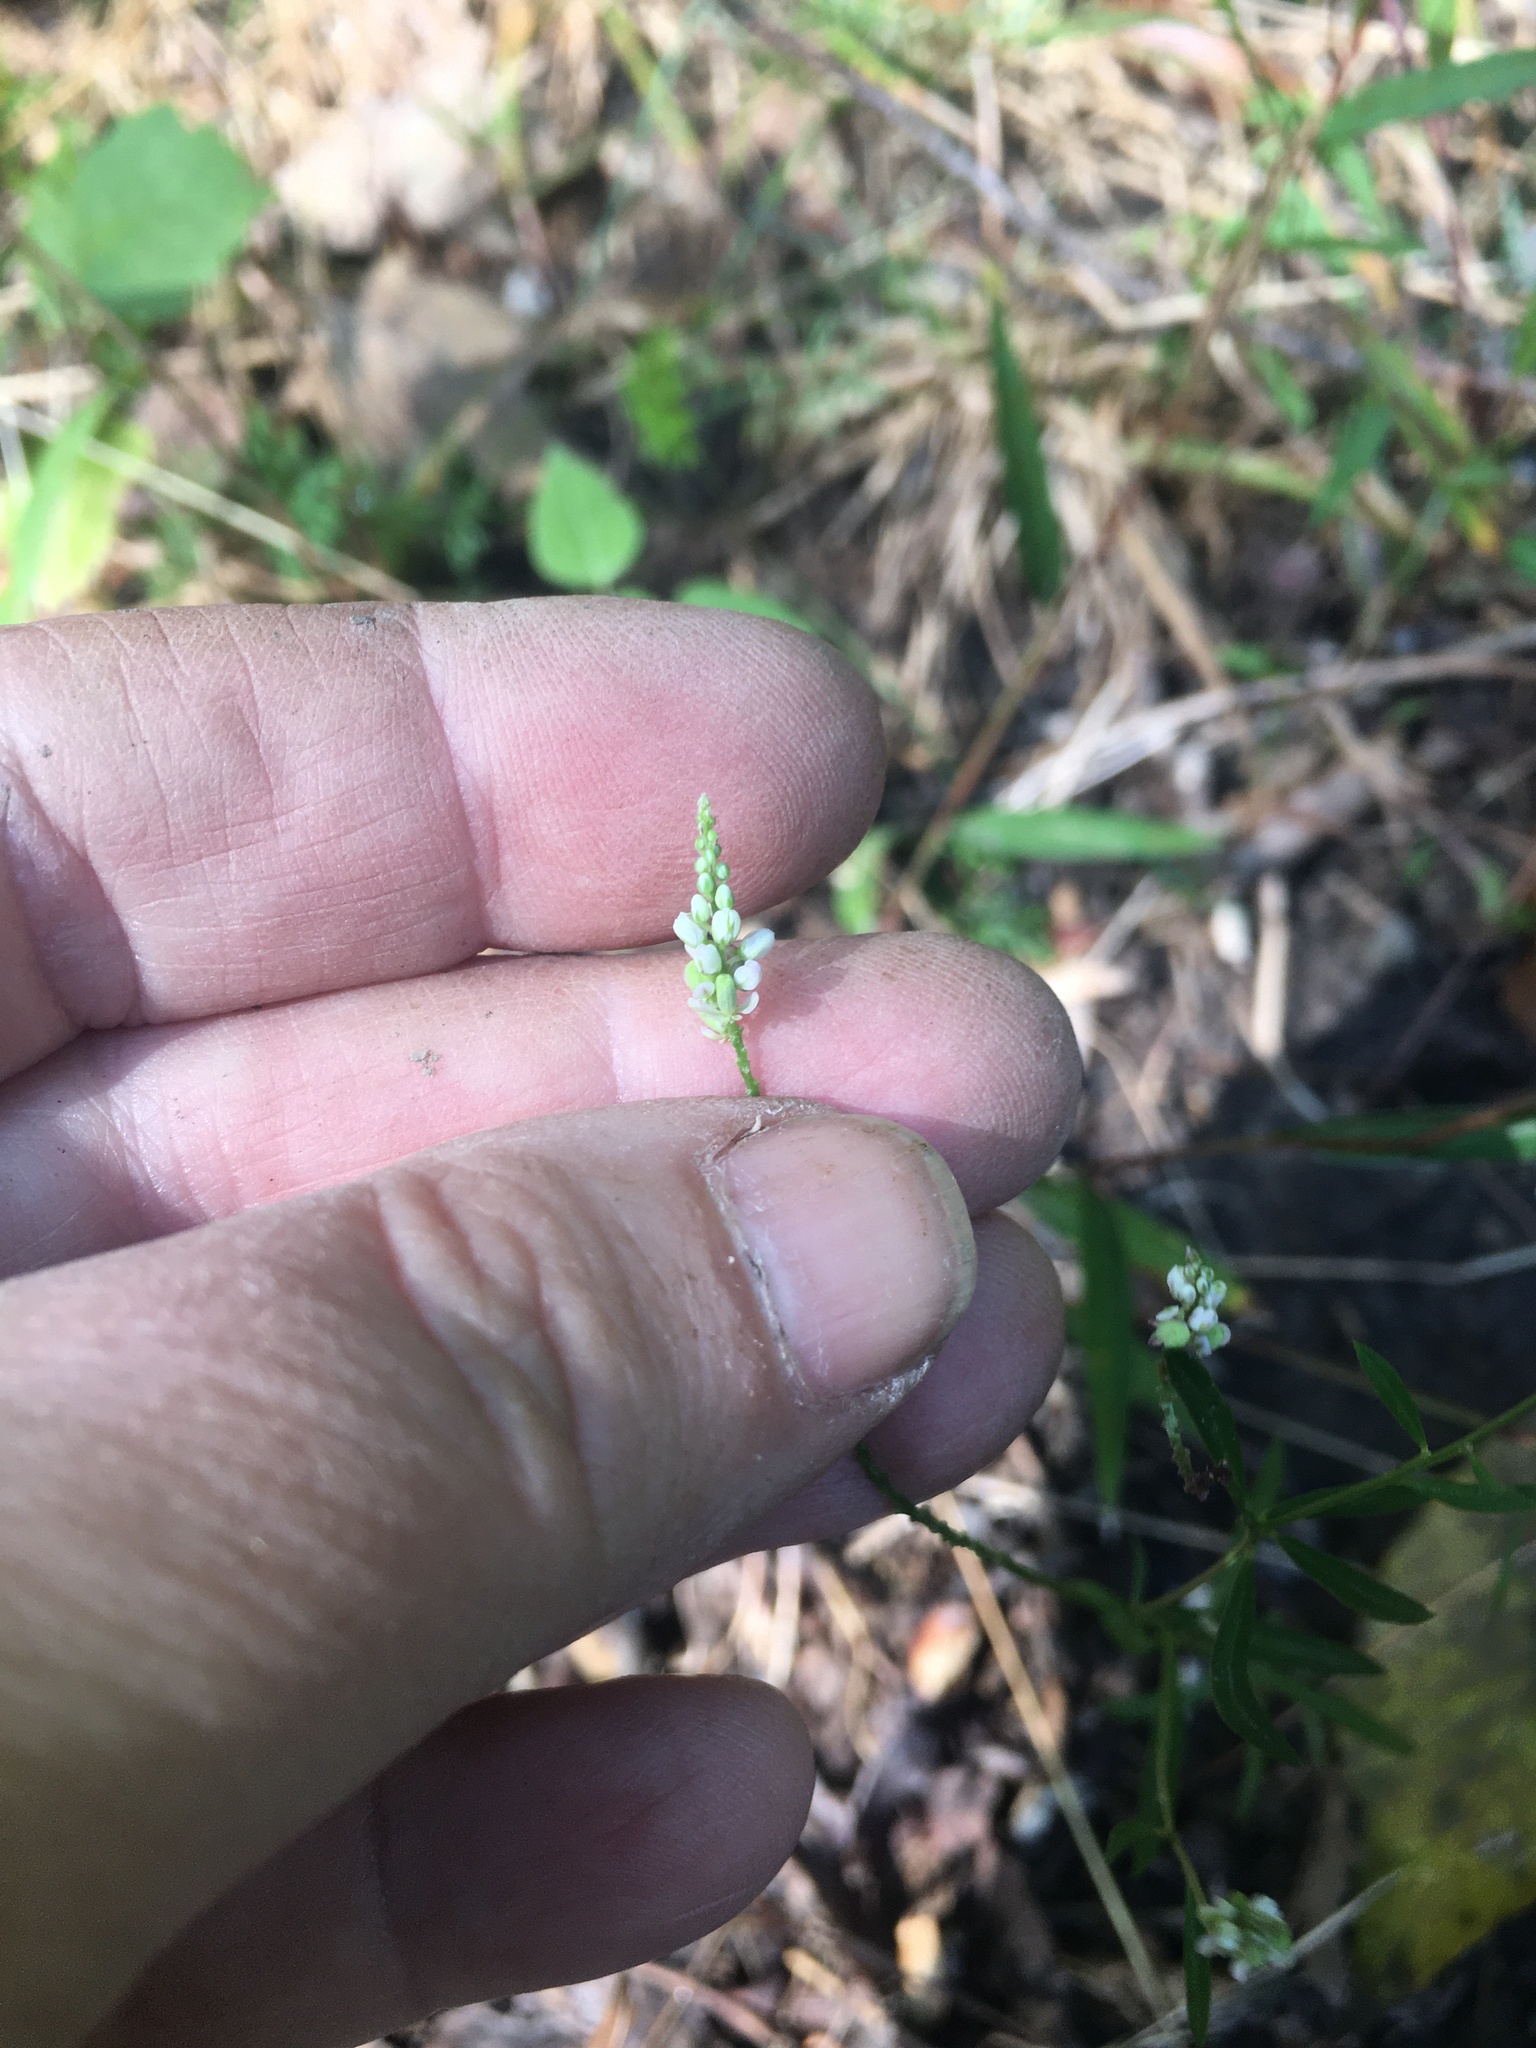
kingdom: Plantae
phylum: Tracheophyta
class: Magnoliopsida
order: Fabales
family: Polygalaceae
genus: Polygala
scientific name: Polygala verticillata
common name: Whorl milkwort
